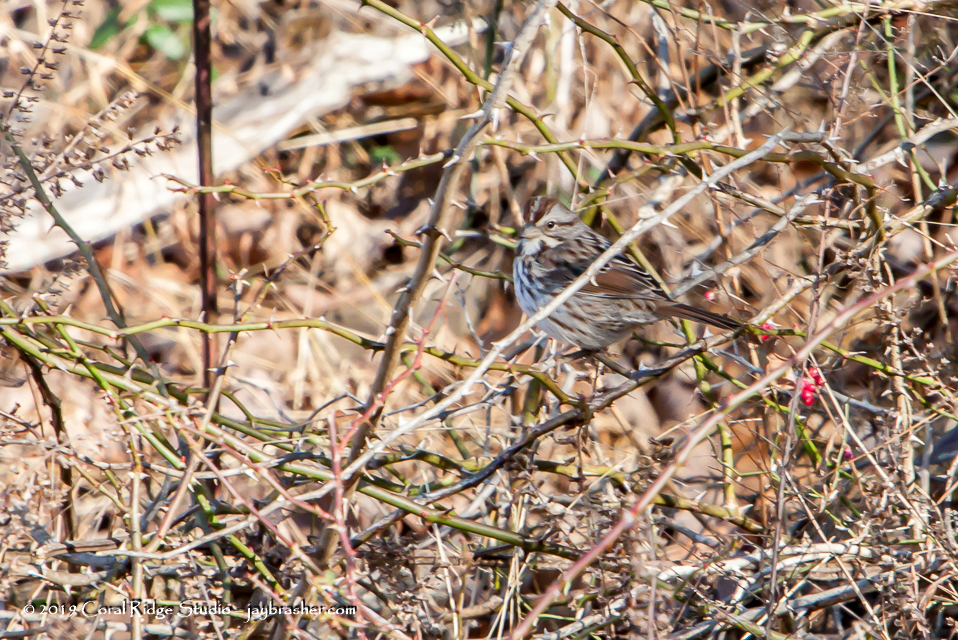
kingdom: Animalia
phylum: Chordata
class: Aves
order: Passeriformes
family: Passerellidae
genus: Melospiza
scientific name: Melospiza melodia
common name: Song sparrow
